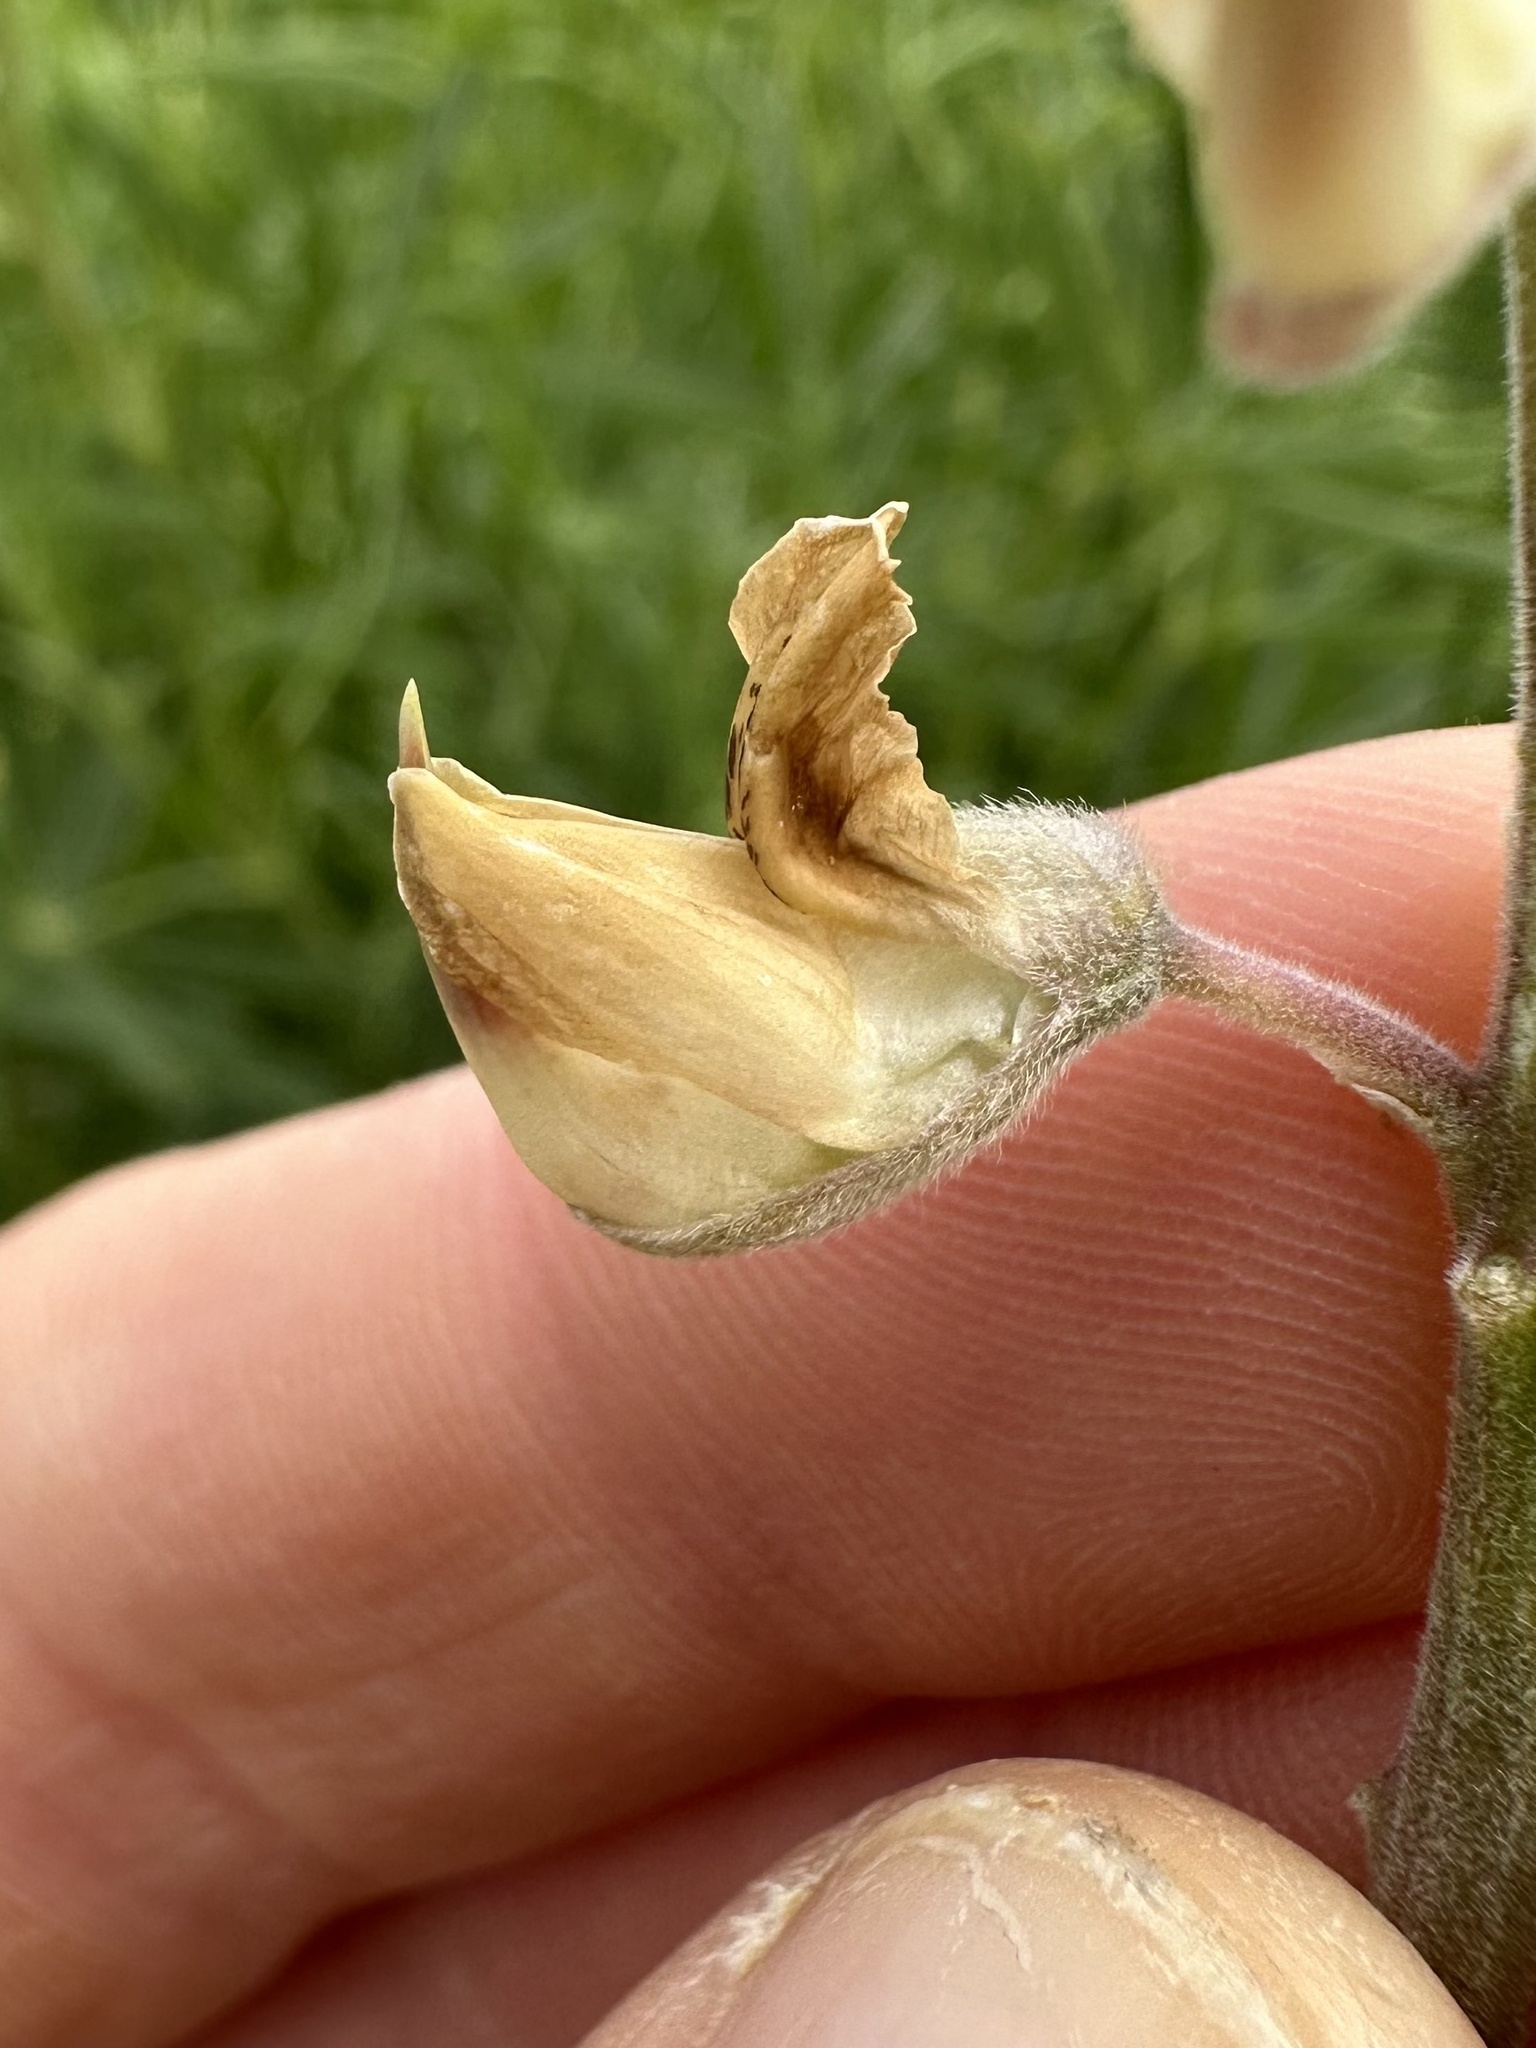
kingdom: Plantae
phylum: Tracheophyta
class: Magnoliopsida
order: Fabales
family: Fabaceae
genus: Lupinus
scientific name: Lupinus albicaulis
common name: Pine lupine
